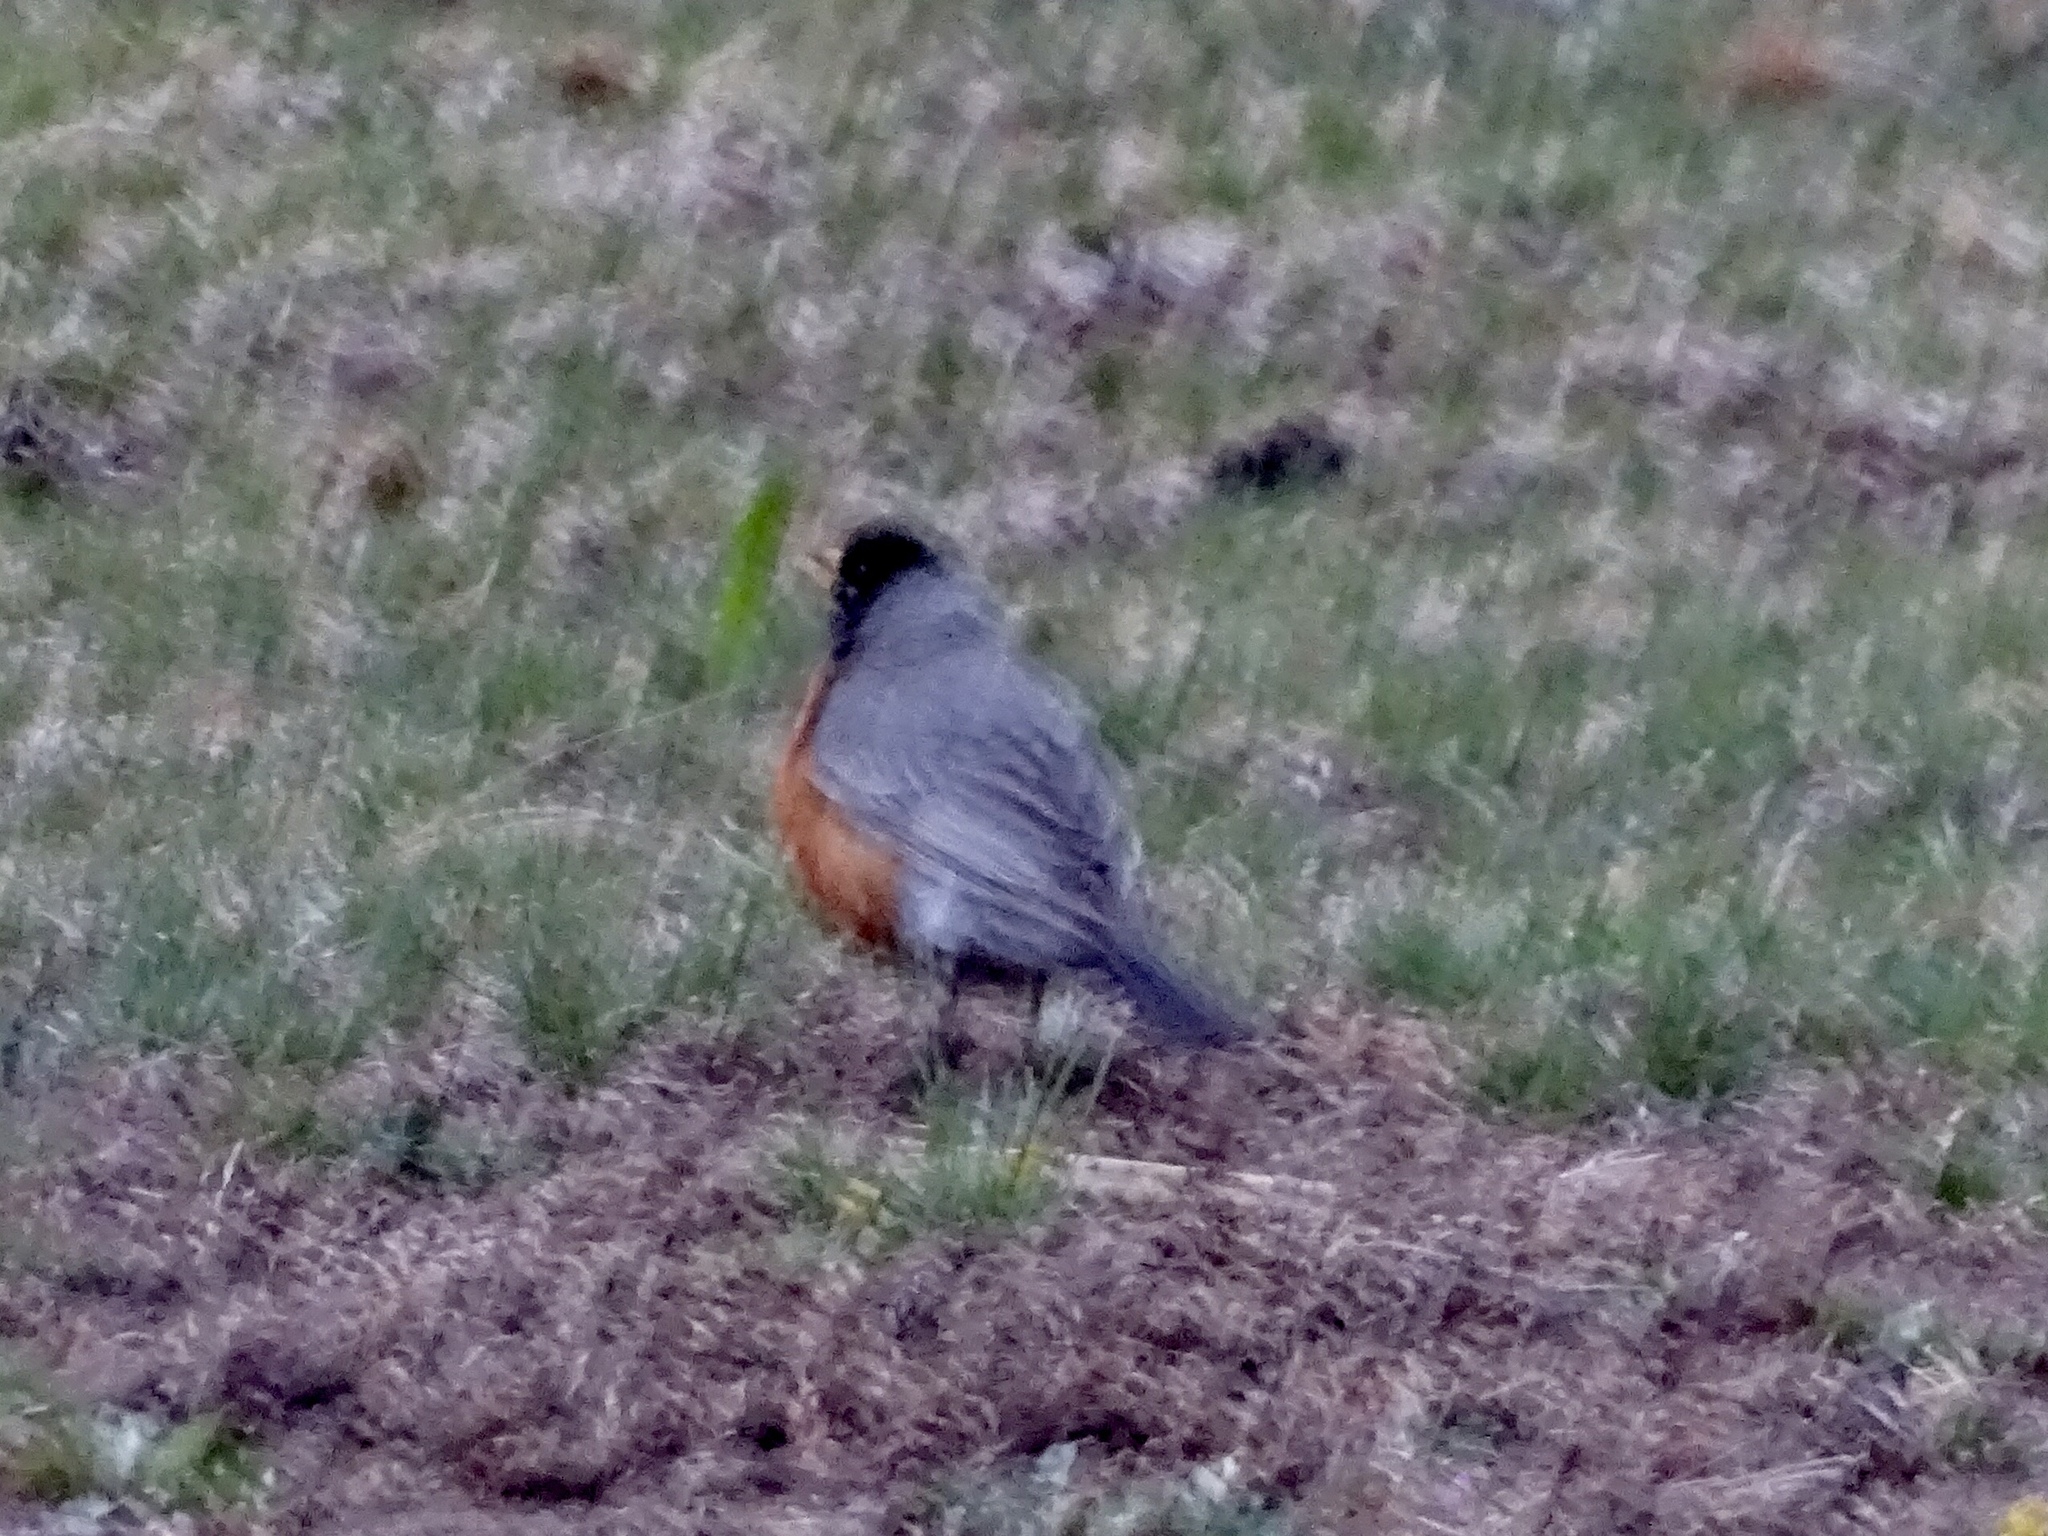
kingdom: Animalia
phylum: Chordata
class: Aves
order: Passeriformes
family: Turdidae
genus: Turdus
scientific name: Turdus migratorius
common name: American robin
